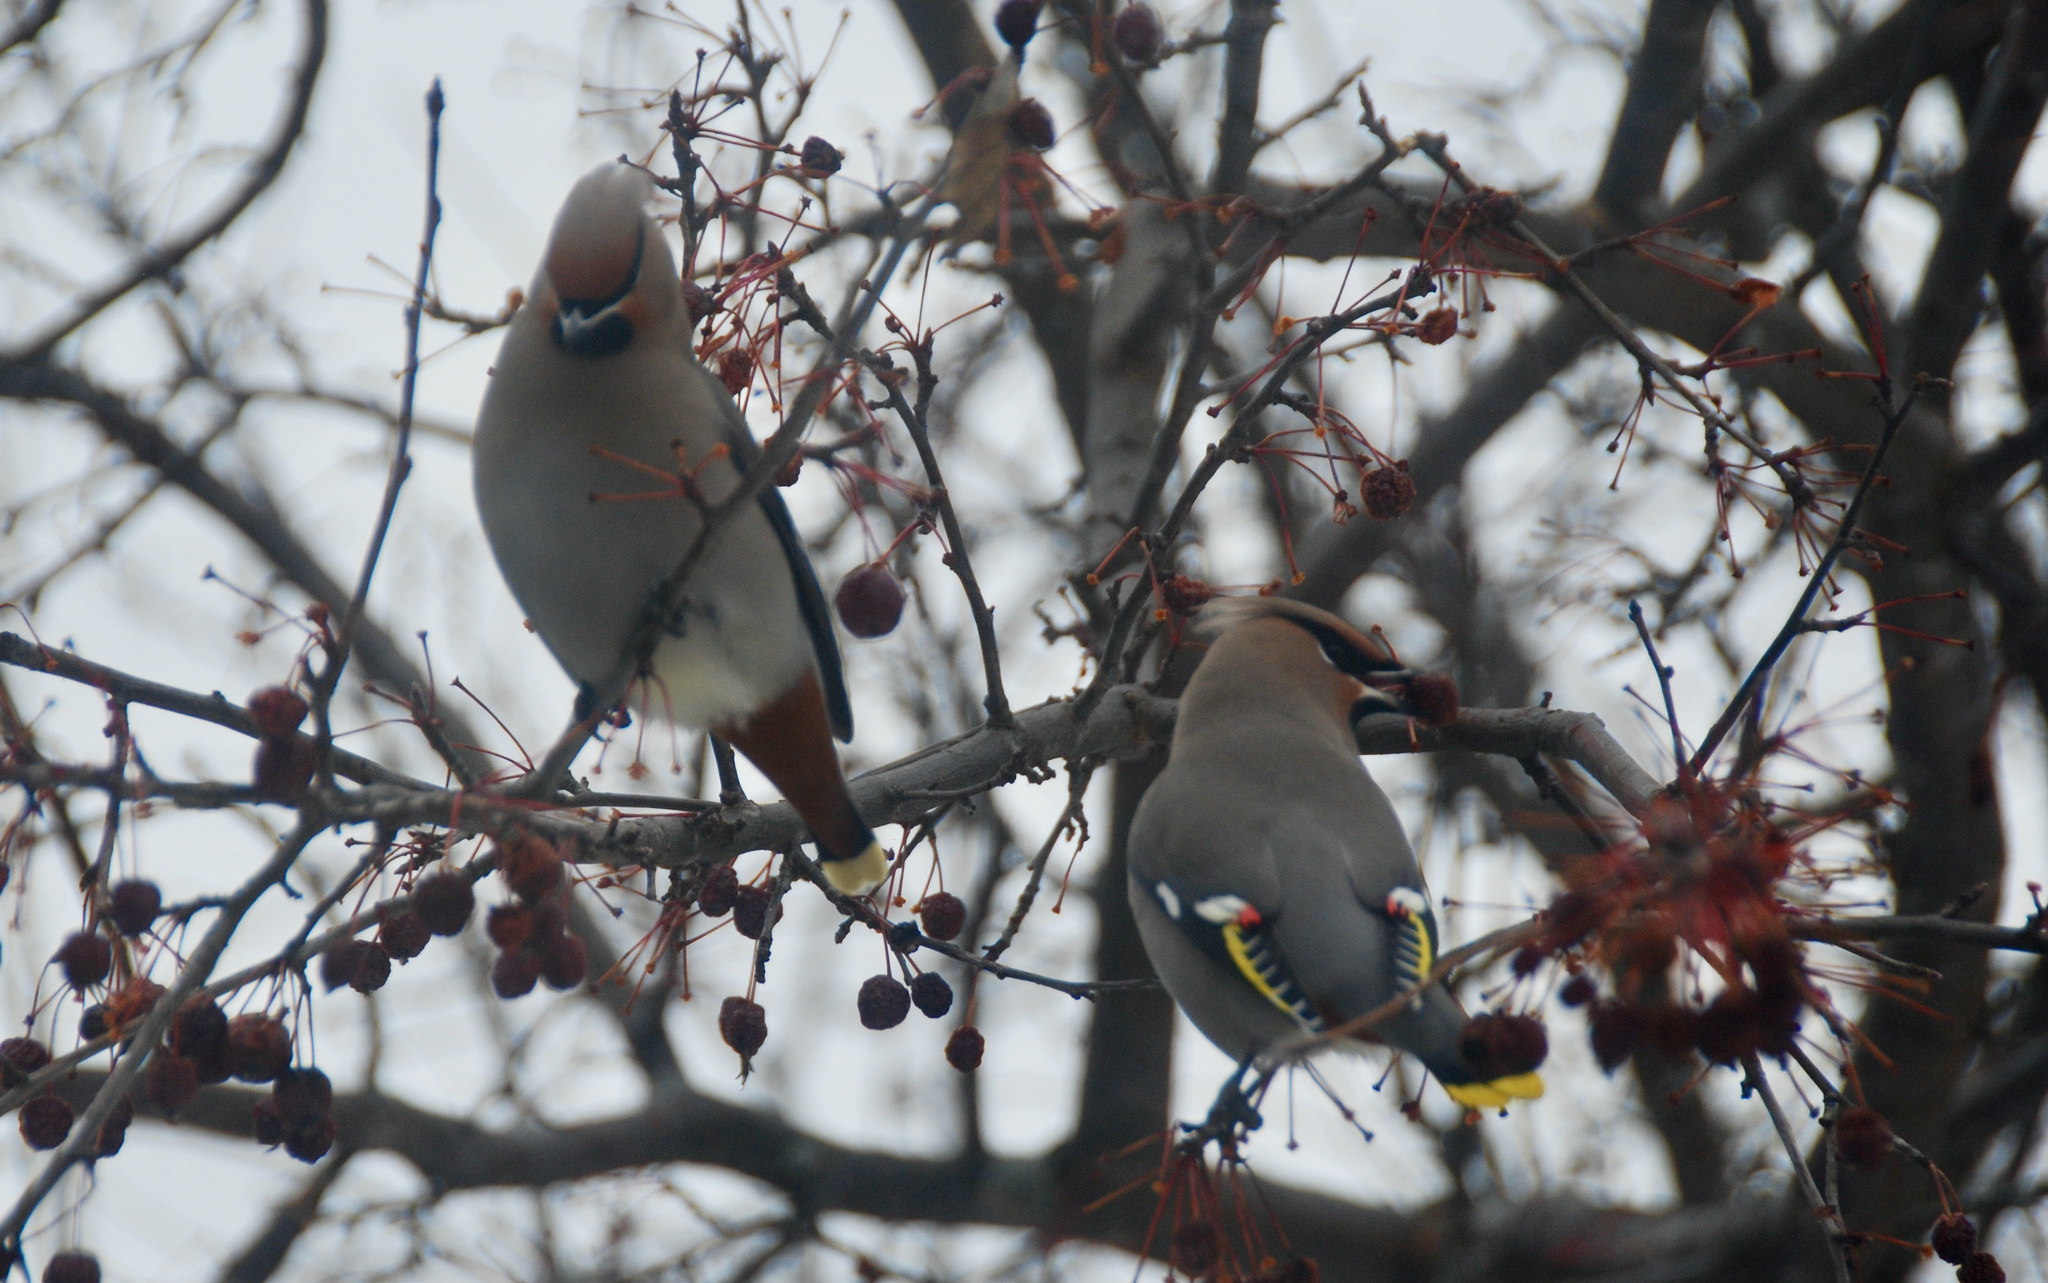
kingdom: Animalia
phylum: Chordata
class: Aves
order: Passeriformes
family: Bombycillidae
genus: Bombycilla
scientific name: Bombycilla garrulus
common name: Bohemian waxwing
